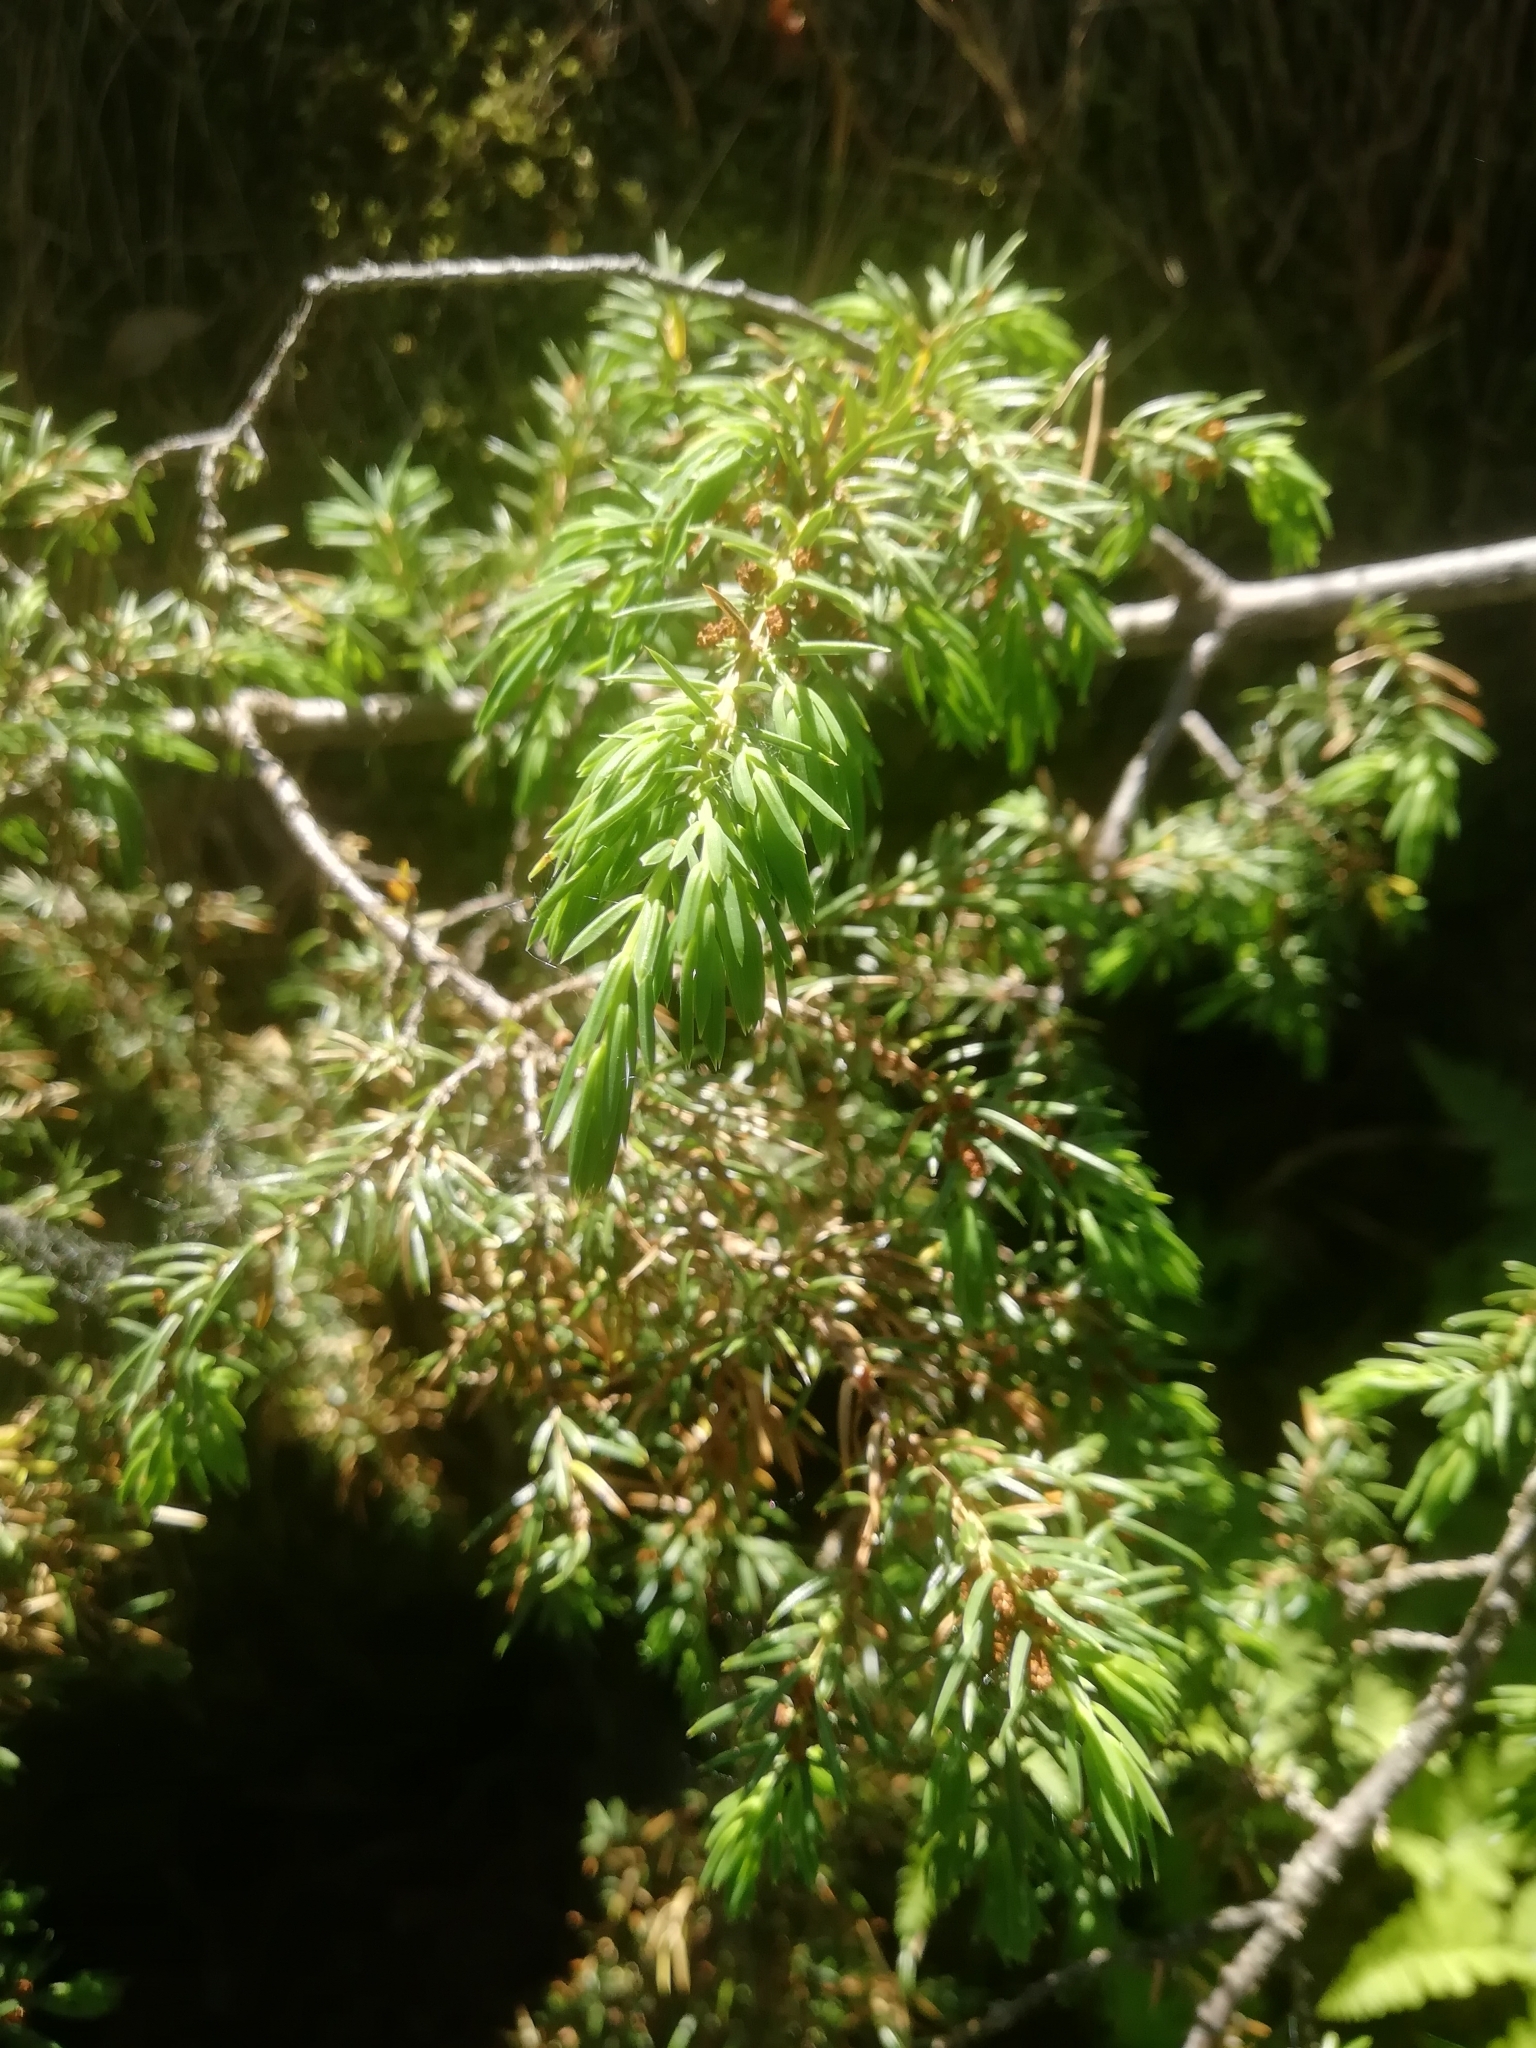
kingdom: Plantae
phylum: Tracheophyta
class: Pinopsida
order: Pinales
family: Cupressaceae
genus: Juniperus
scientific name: Juniperus communis
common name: Common juniper
